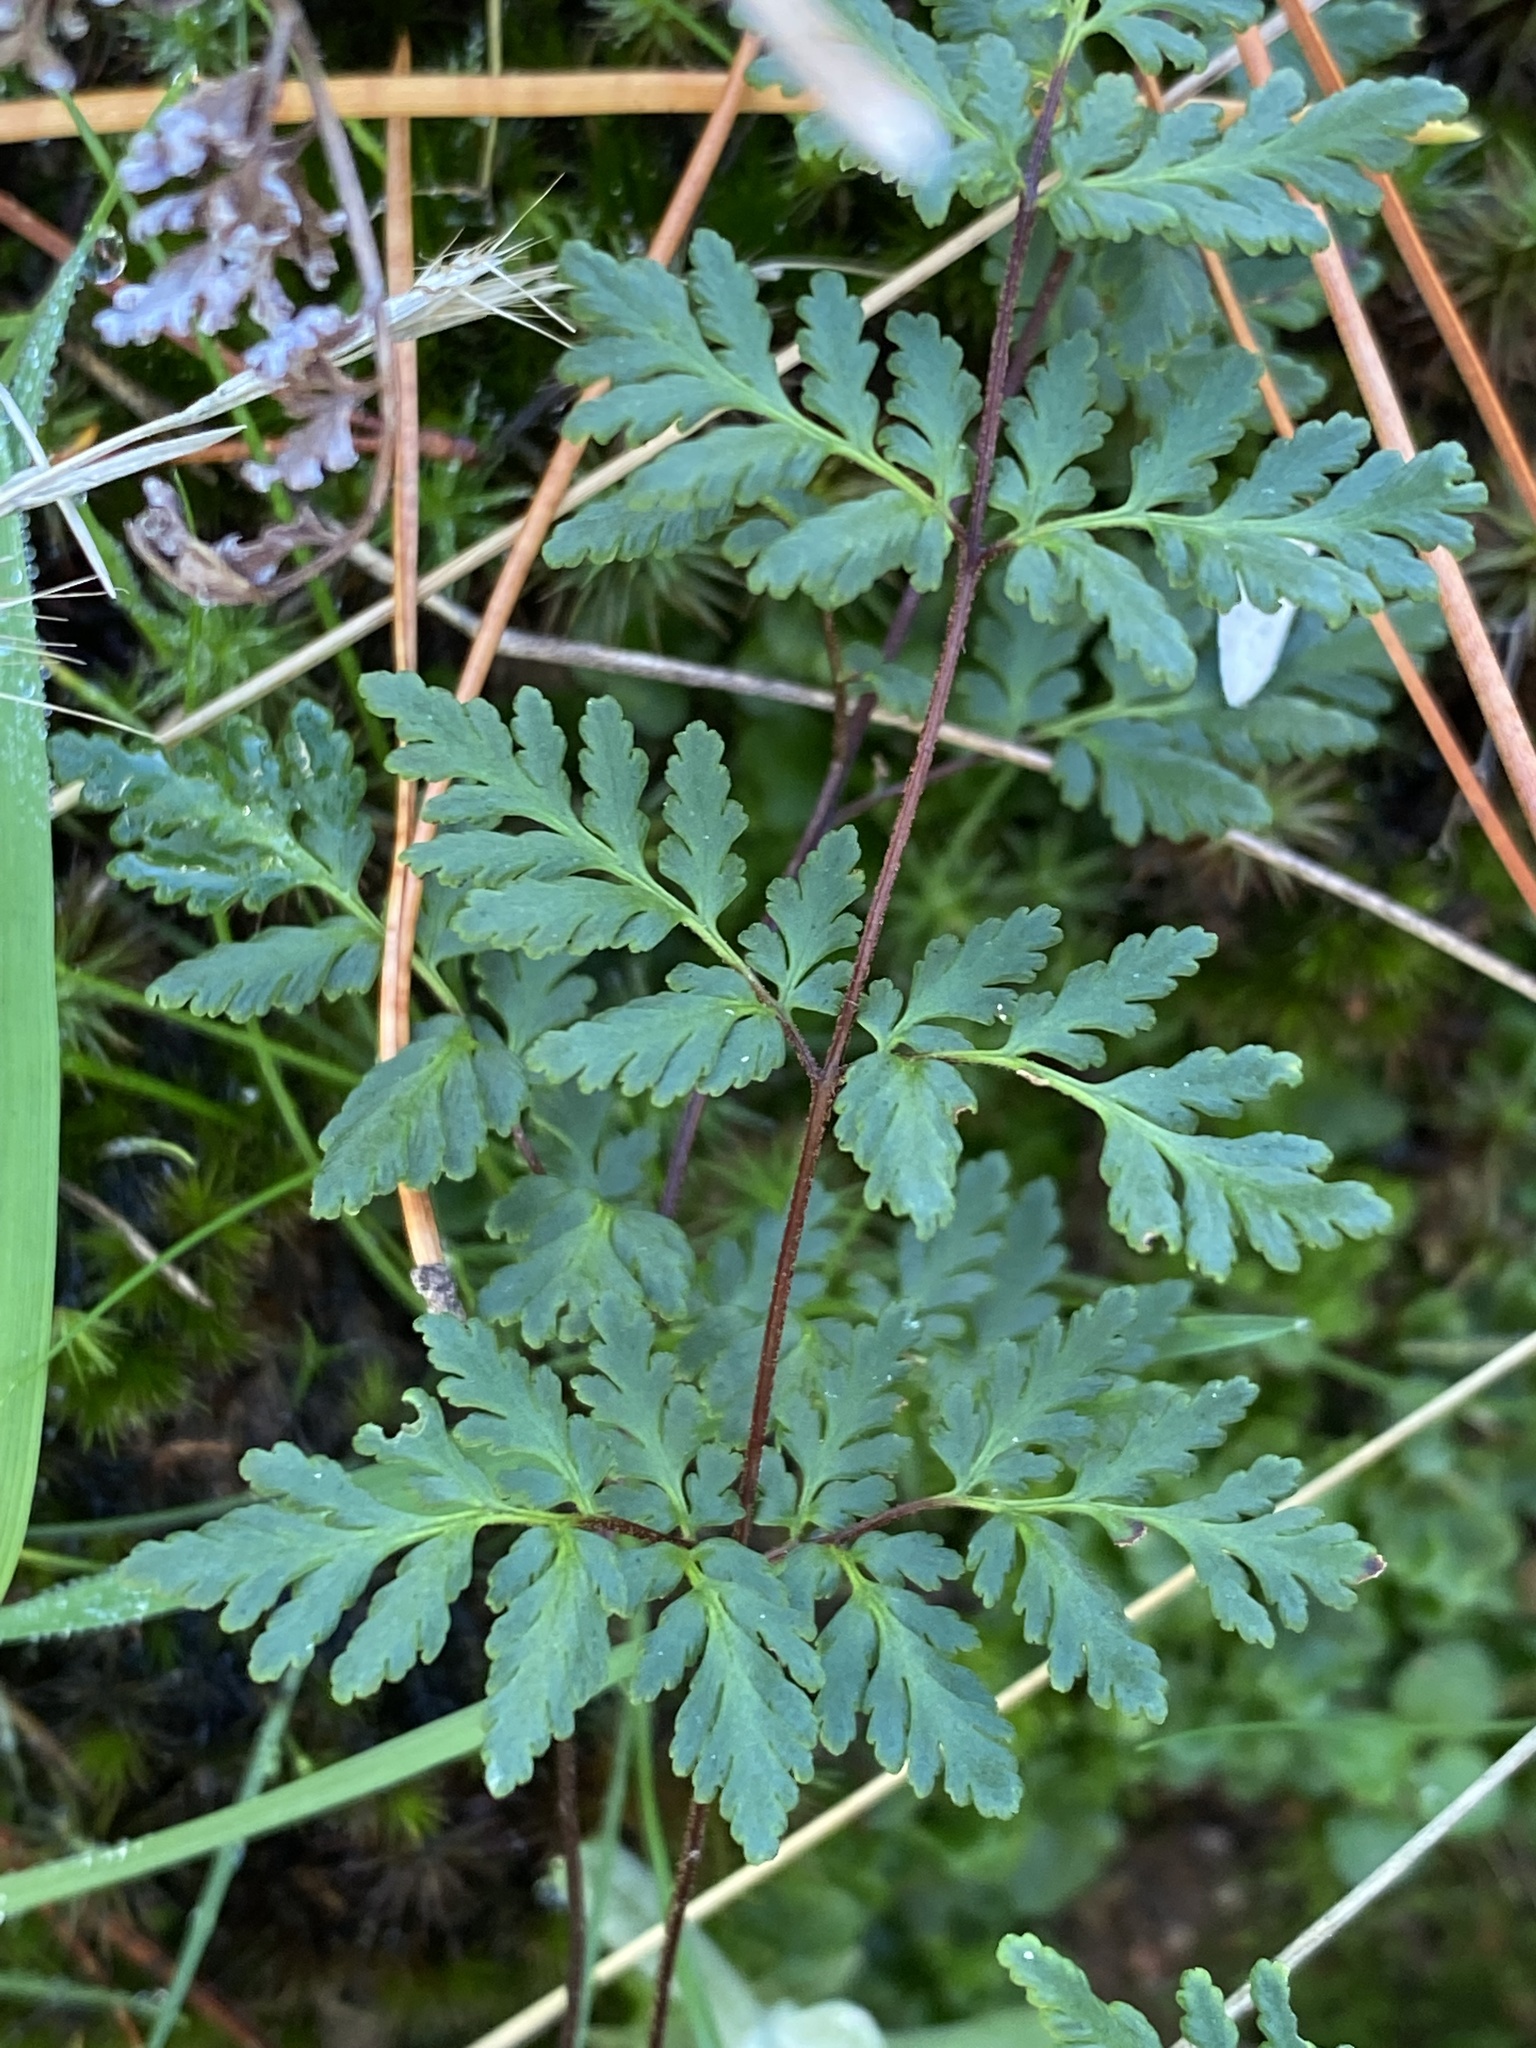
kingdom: Plantae
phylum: Tracheophyta
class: Polypodiopsida
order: Polypodiales
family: Pteridaceae
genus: Cheilanthes
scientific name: Cheilanthes sieberi
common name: Mulga fern
